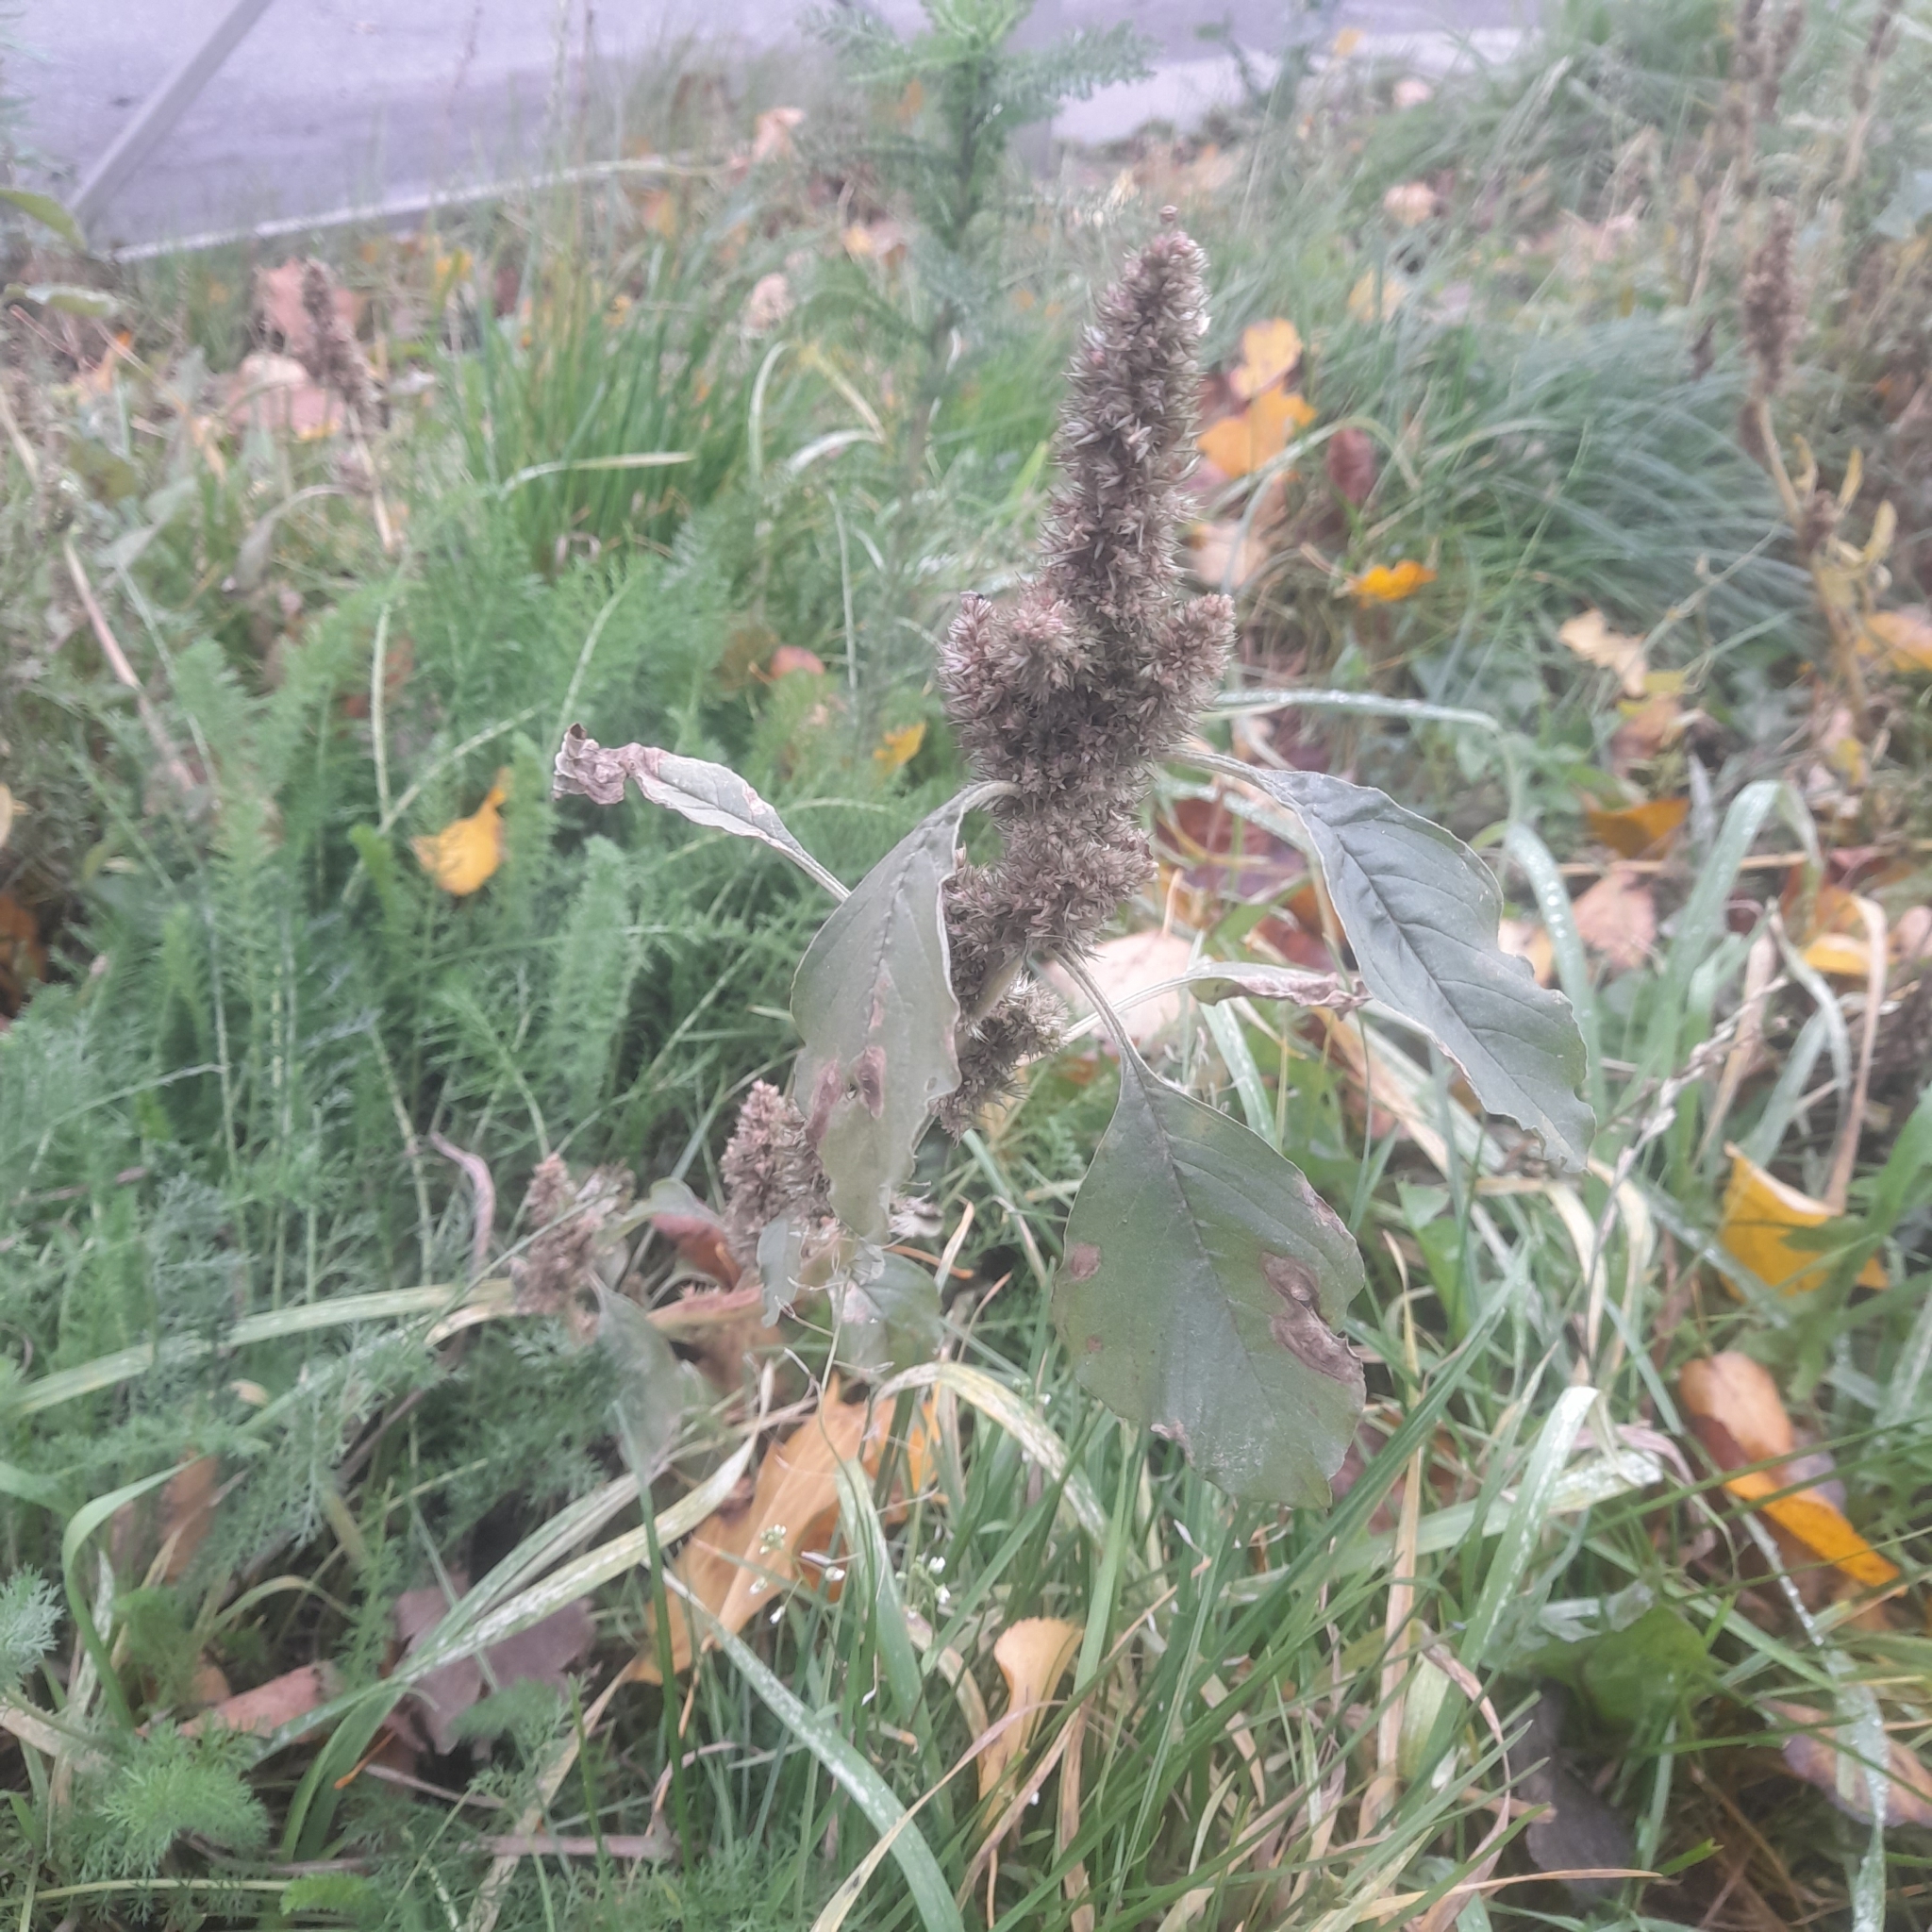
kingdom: Plantae
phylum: Tracheophyta
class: Magnoliopsida
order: Caryophyllales
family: Amaranthaceae
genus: Amaranthus
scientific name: Amaranthus retroflexus
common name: Redroot amaranth
